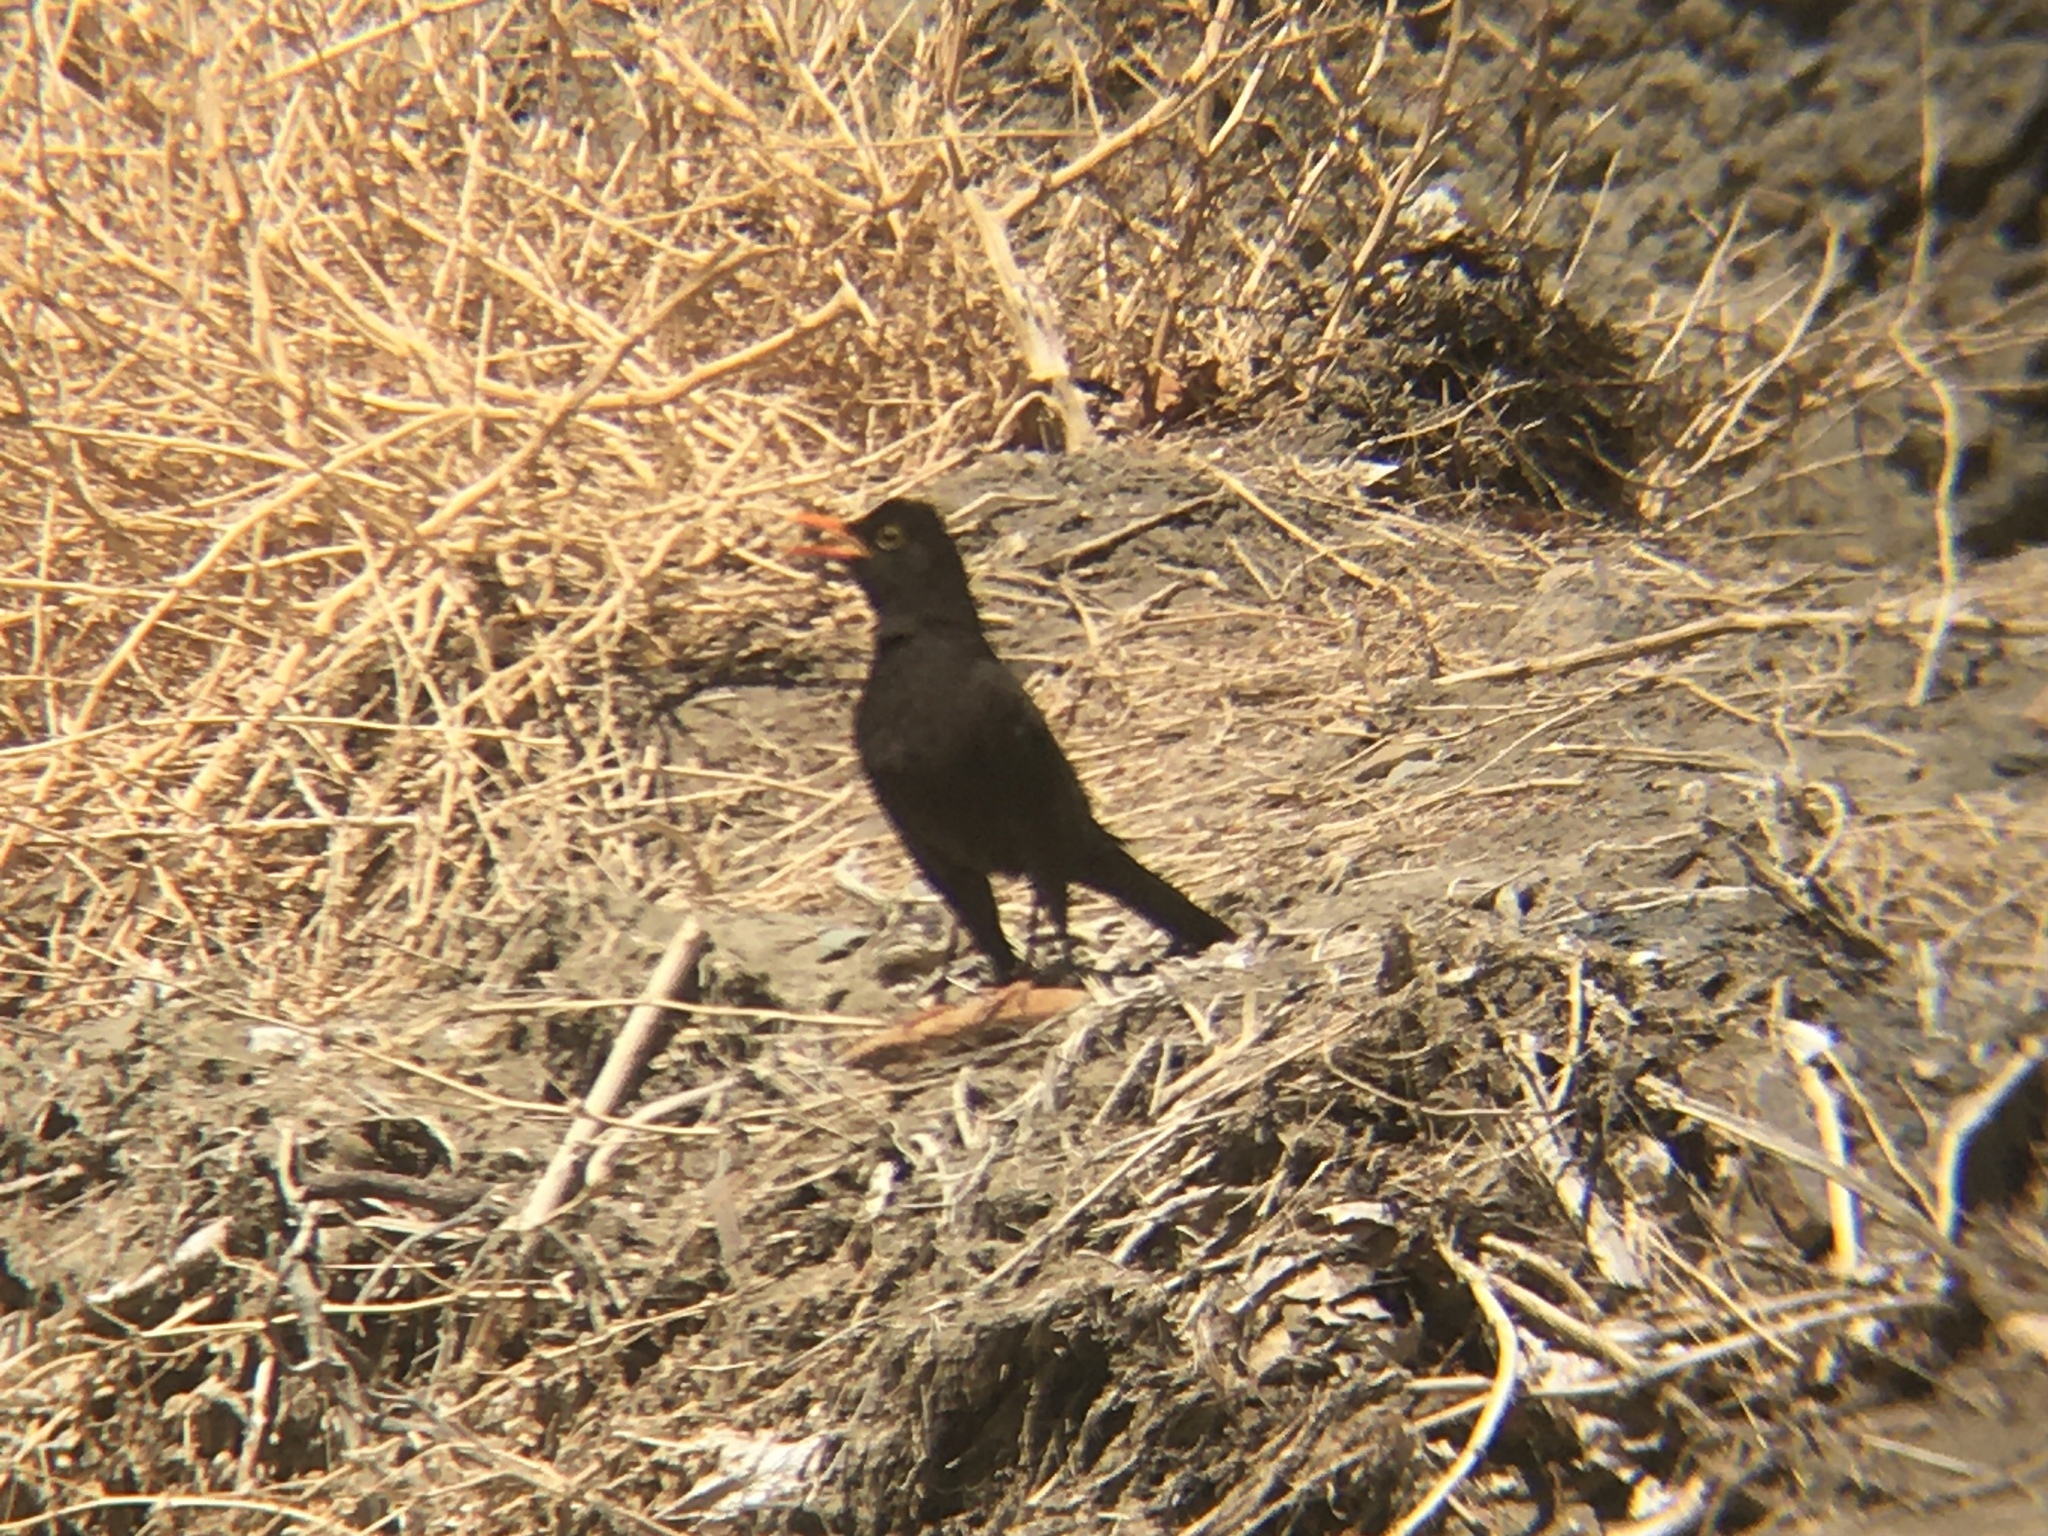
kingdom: Animalia
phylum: Chordata
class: Aves
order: Passeriformes
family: Turdidae
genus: Turdus
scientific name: Turdus chiguanco
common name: Chiguanco thrush
